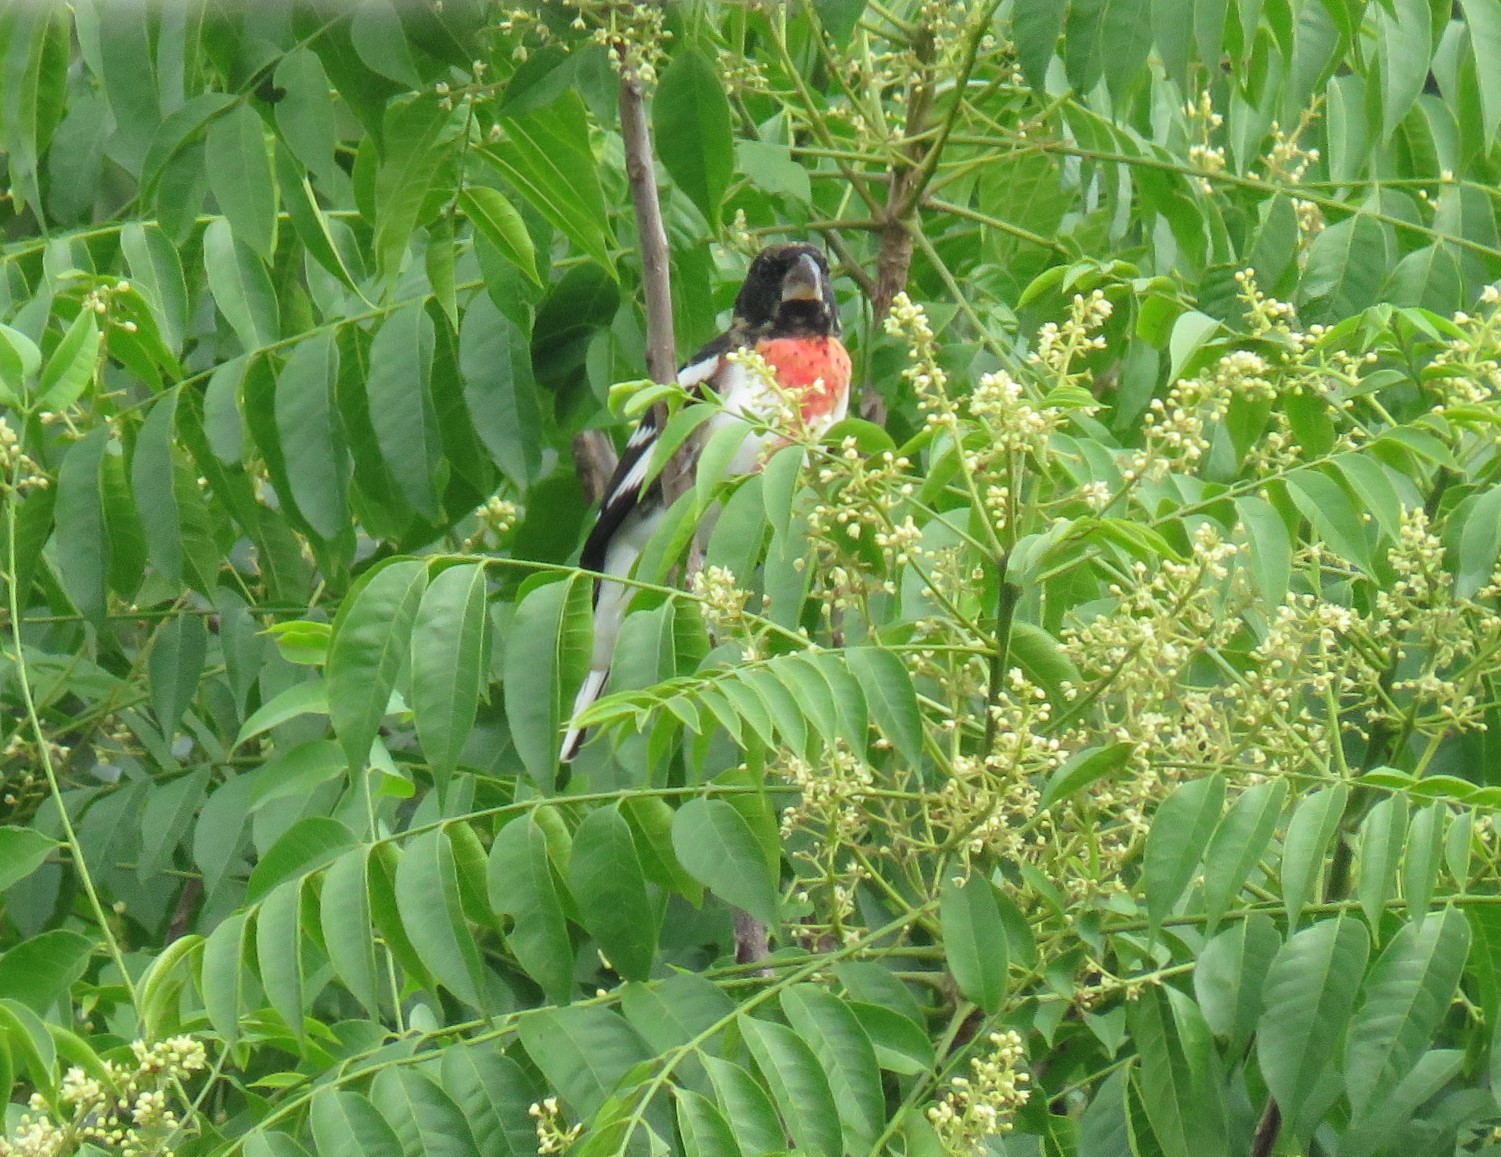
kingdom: Animalia
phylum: Chordata
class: Aves
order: Passeriformes
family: Cardinalidae
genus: Pheucticus
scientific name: Pheucticus ludovicianus
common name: Rose-breasted grosbeak
